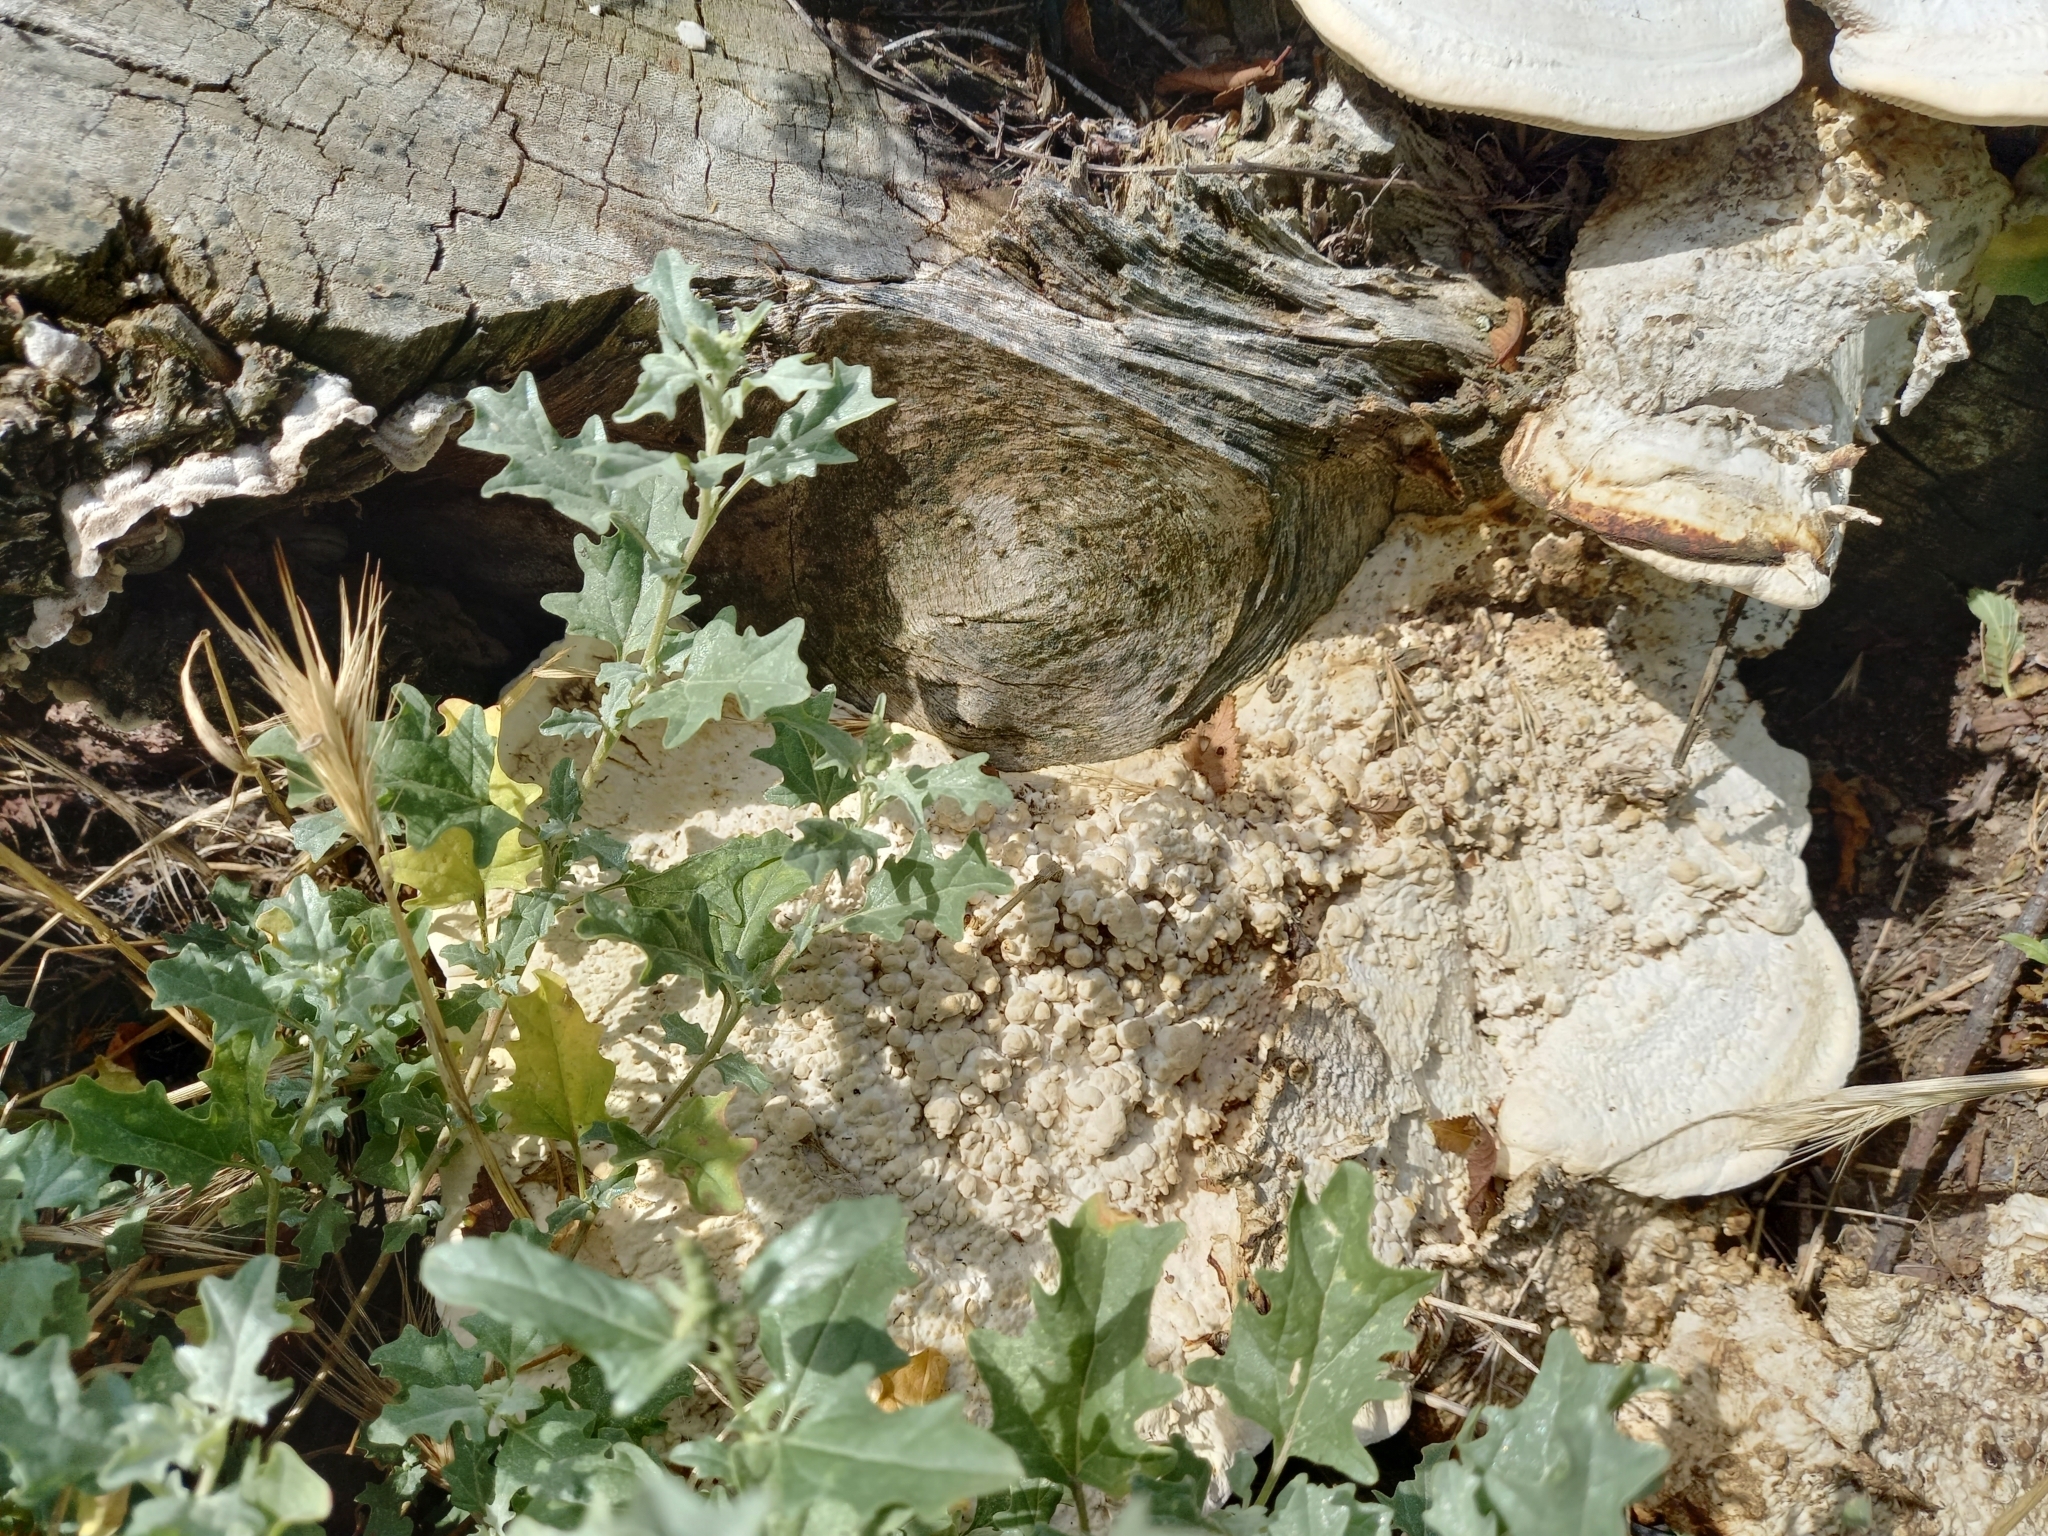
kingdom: Fungi
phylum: Basidiomycota
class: Agaricomycetes
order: Polyporales
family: Polyporaceae
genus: Cellulariella
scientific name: Cellulariella warnieri
